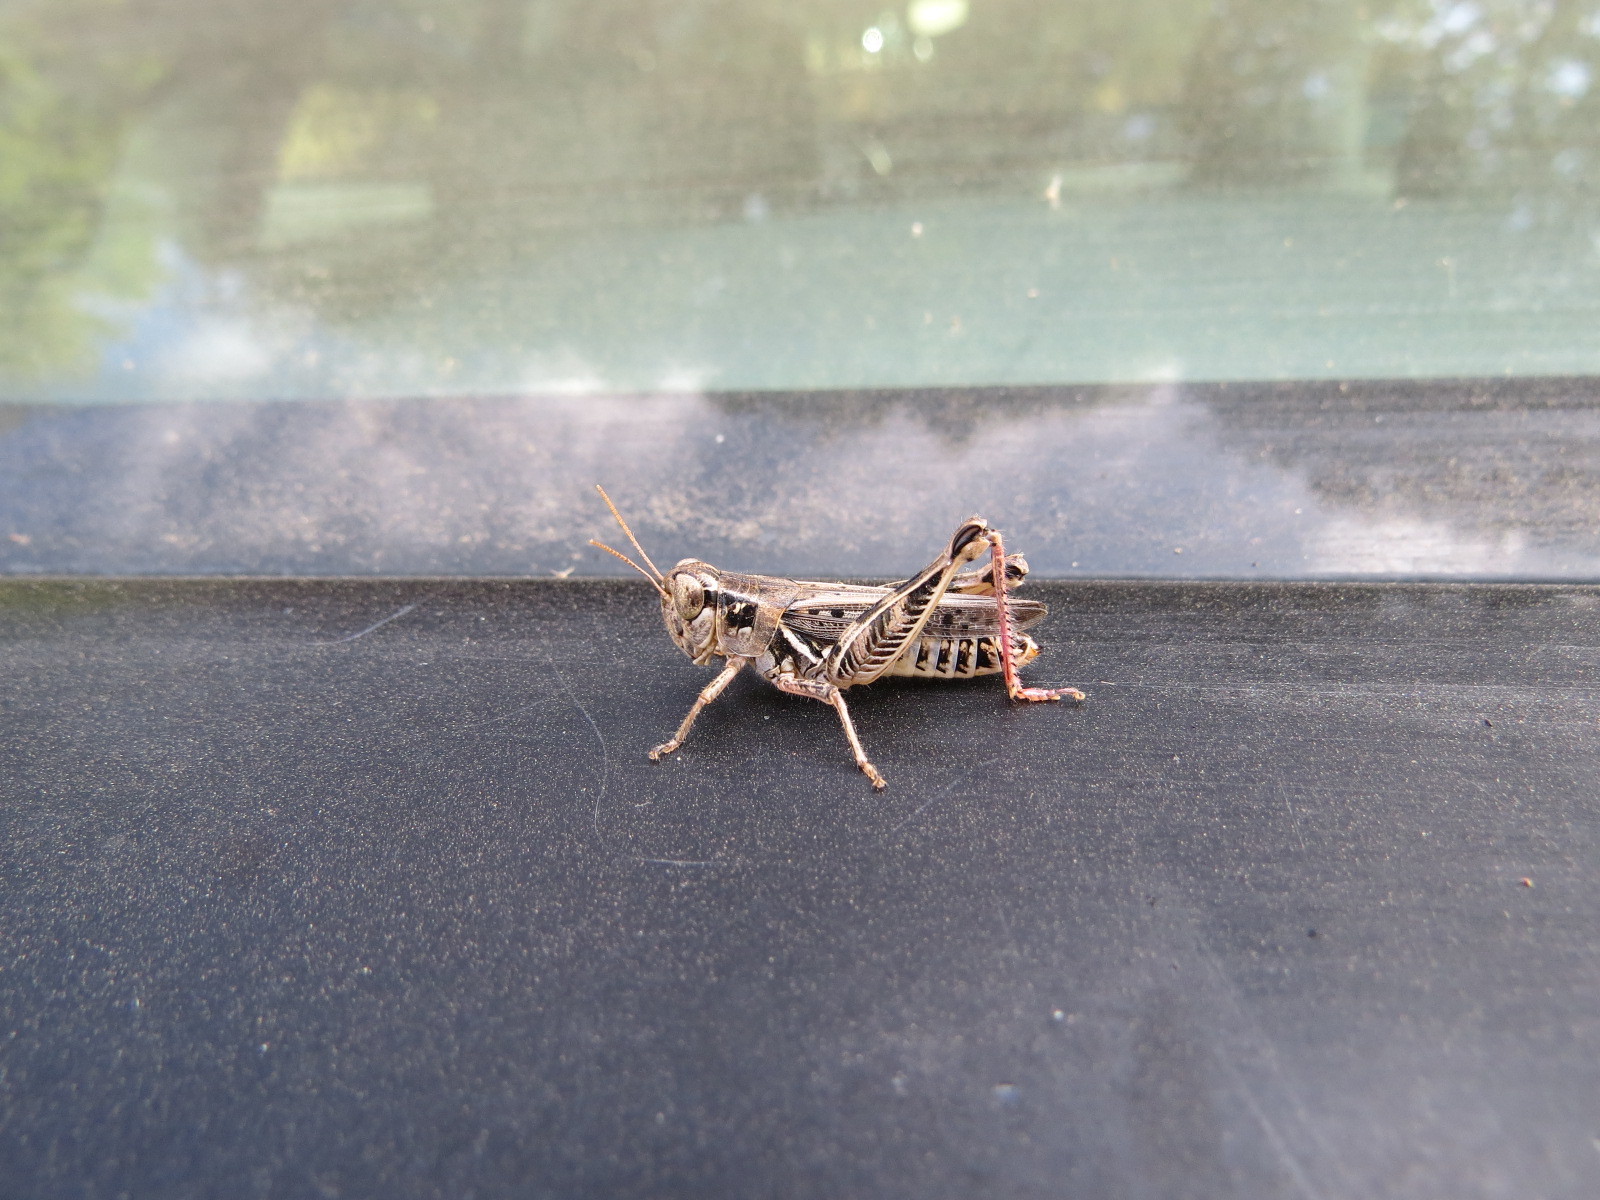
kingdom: Animalia
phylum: Arthropoda
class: Insecta
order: Orthoptera
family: Acrididae
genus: Melanoplus
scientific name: Melanoplus devastator
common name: Devastating grasshopper
